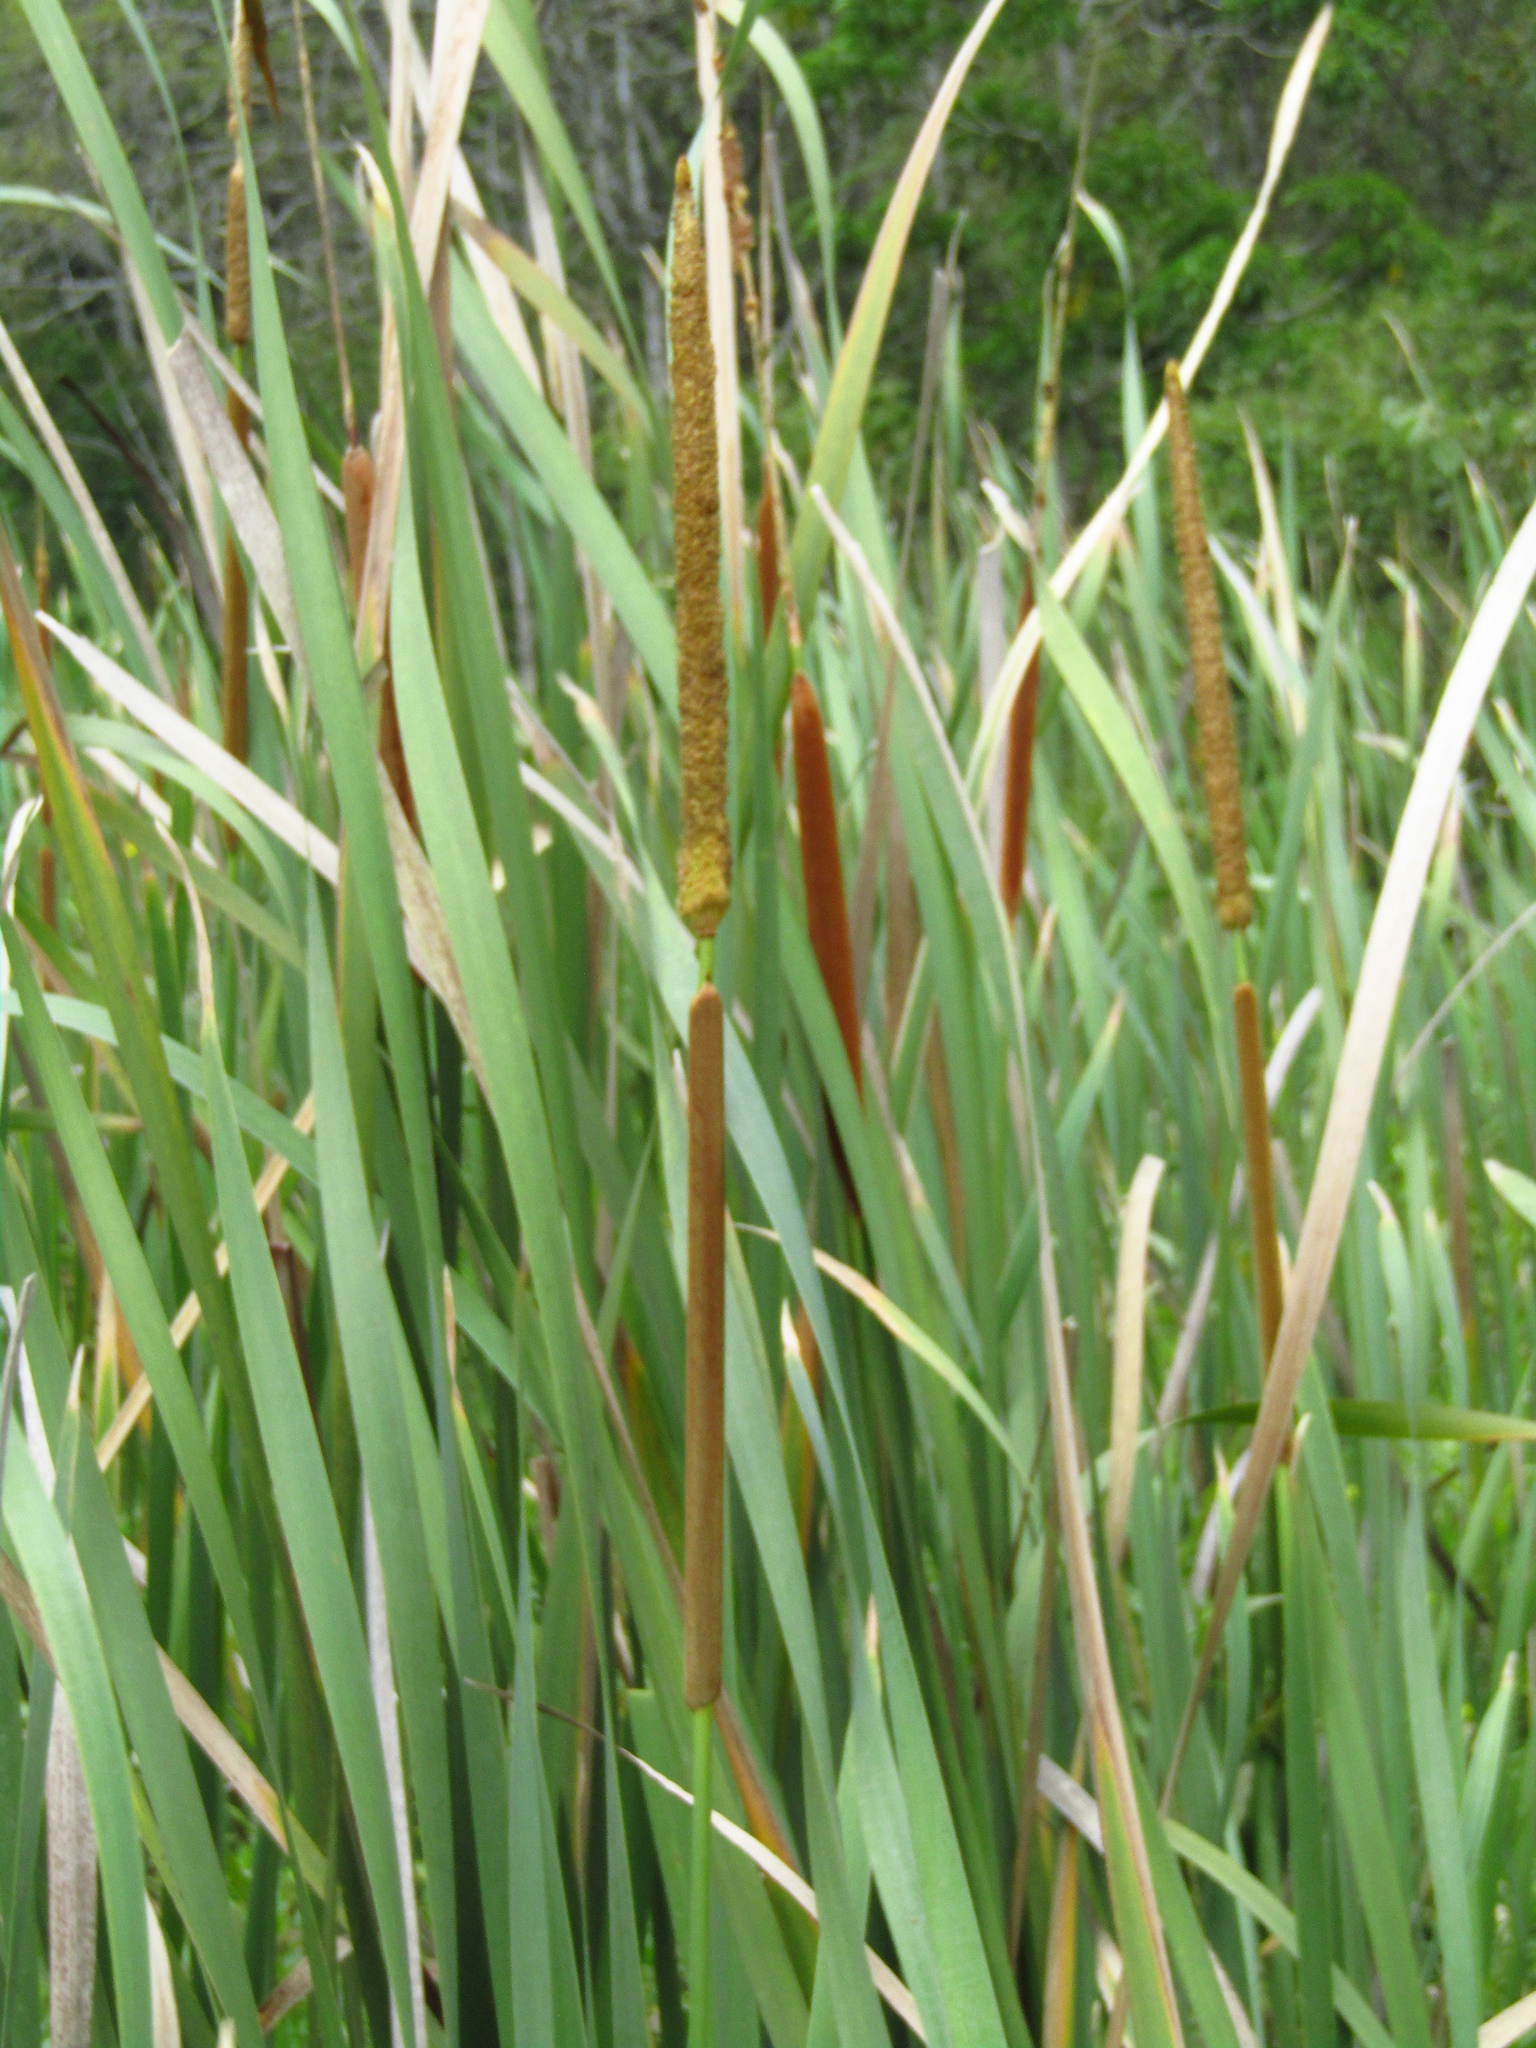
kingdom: Plantae
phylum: Tracheophyta
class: Liliopsida
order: Poales
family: Typhaceae
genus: Typha
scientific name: Typha domingensis
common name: Southern cattail
